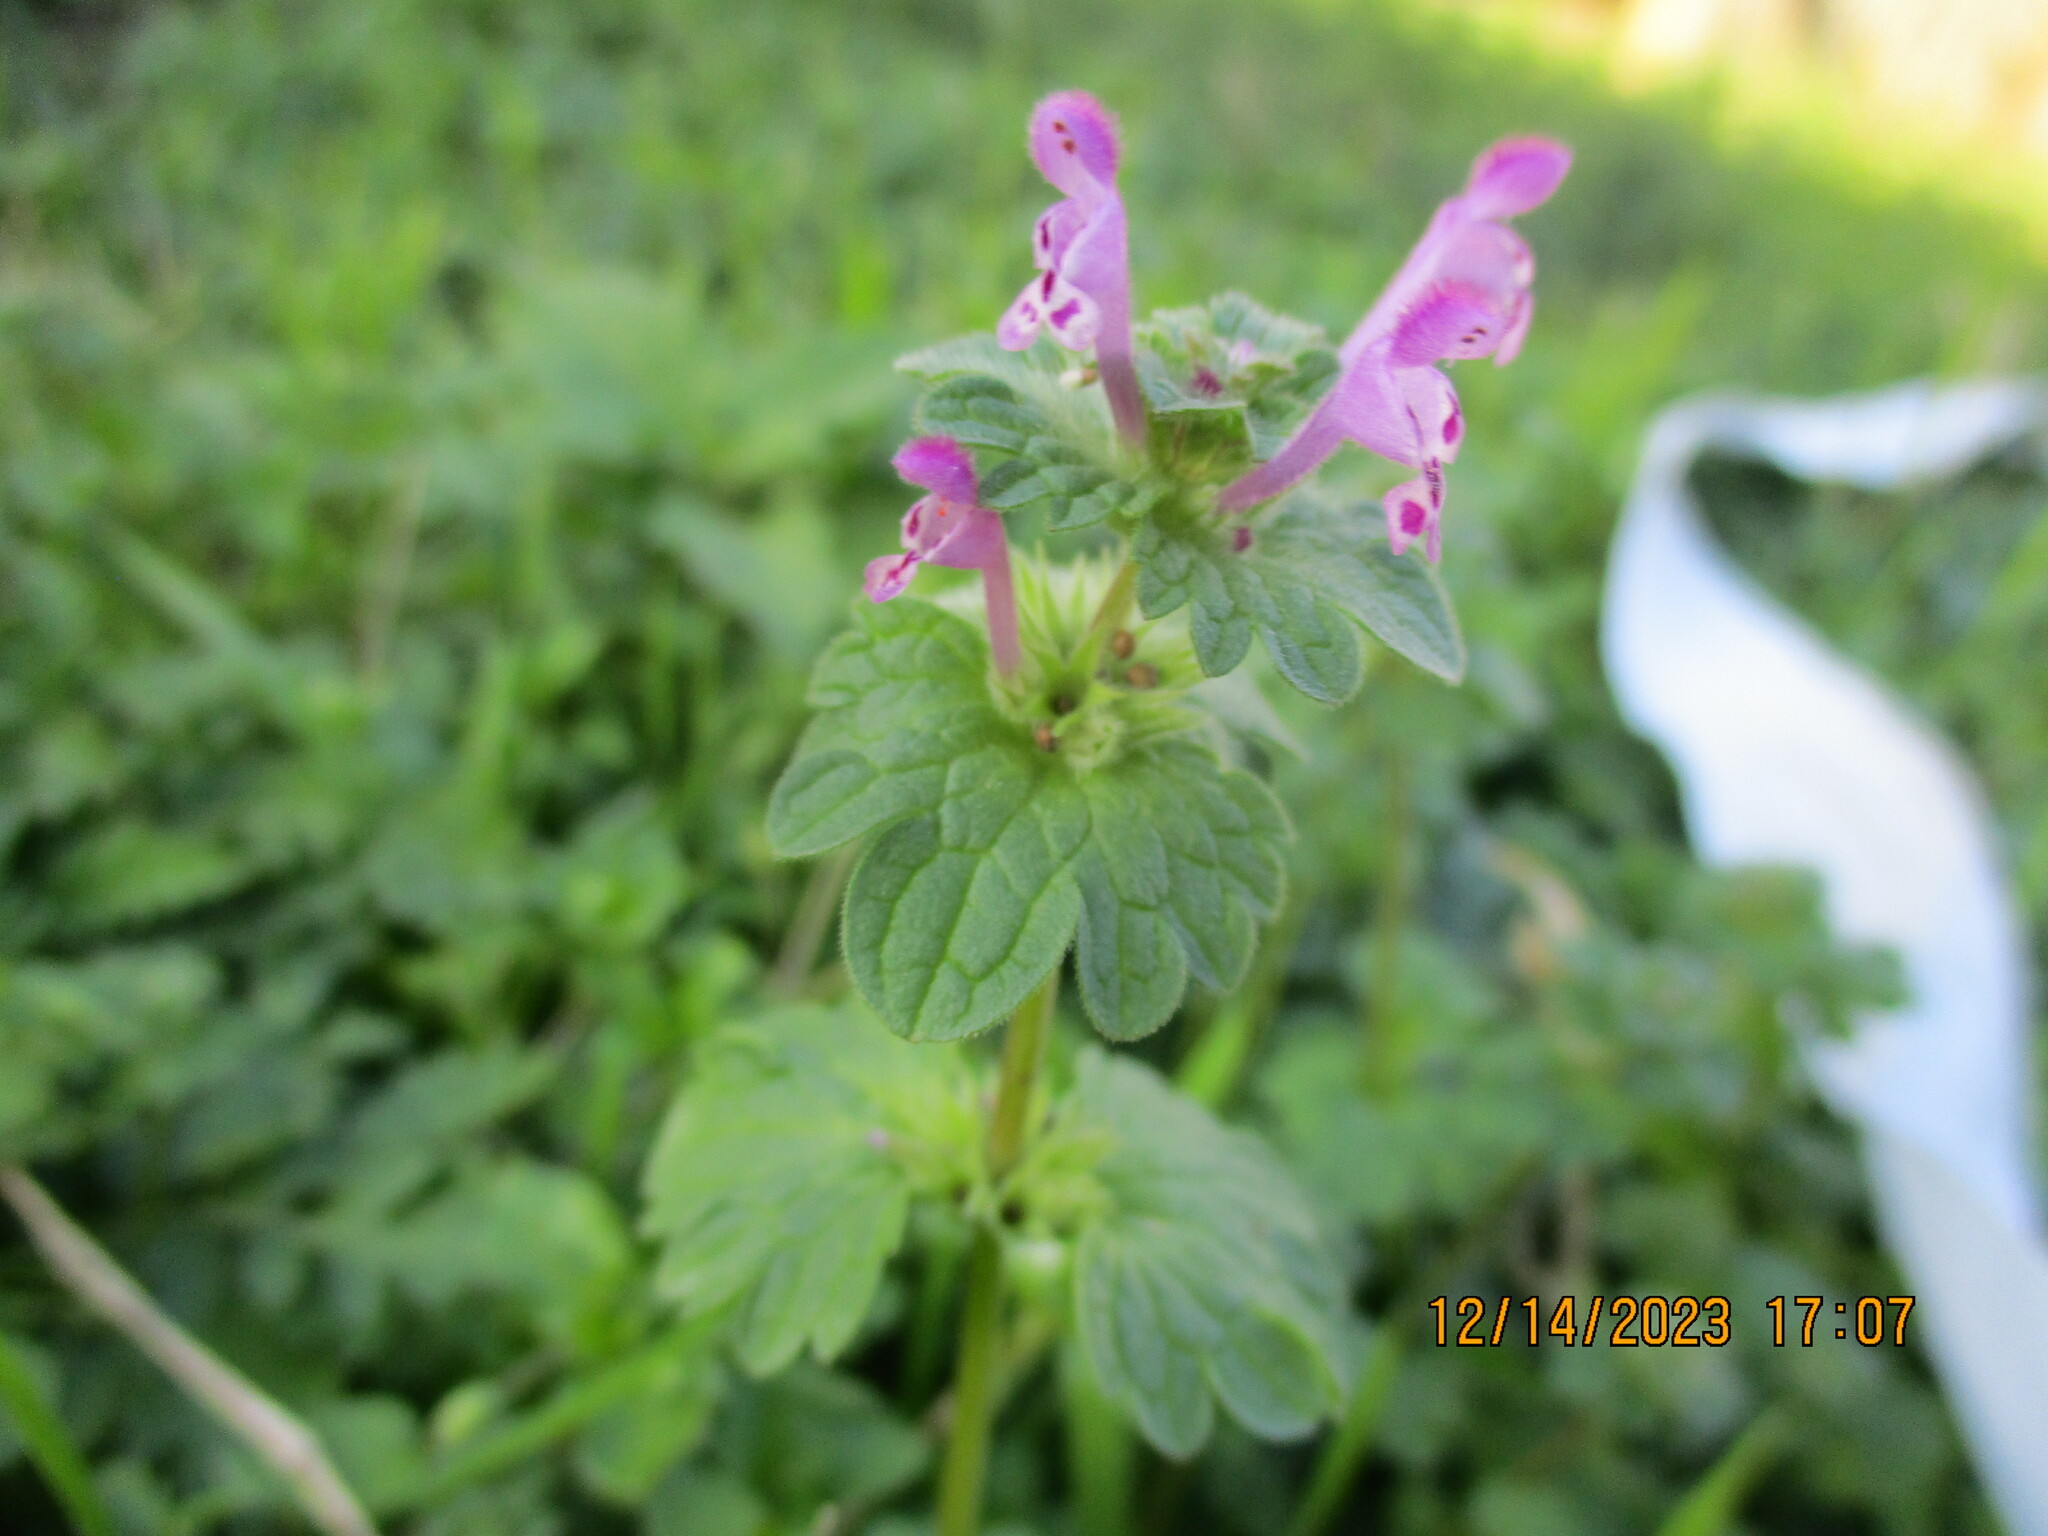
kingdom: Plantae
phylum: Tracheophyta
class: Magnoliopsida
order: Lamiales
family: Lamiaceae
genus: Lamium
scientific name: Lamium amplexicaule
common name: Henbit dead-nettle
